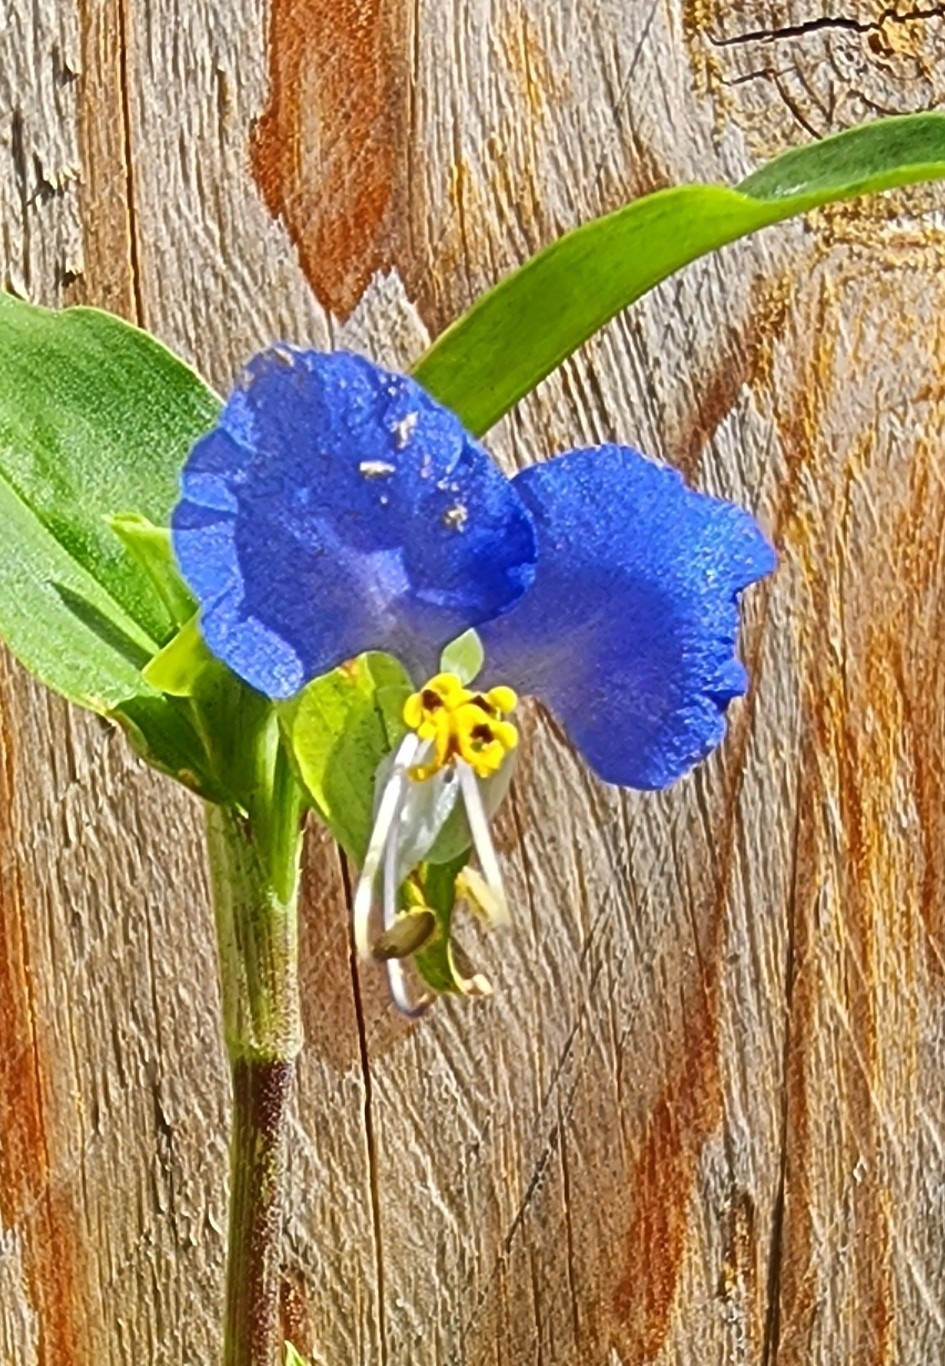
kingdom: Plantae
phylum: Tracheophyta
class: Liliopsida
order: Commelinales
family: Commelinaceae
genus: Commelina
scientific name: Commelina communis
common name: Asiatic dayflower
